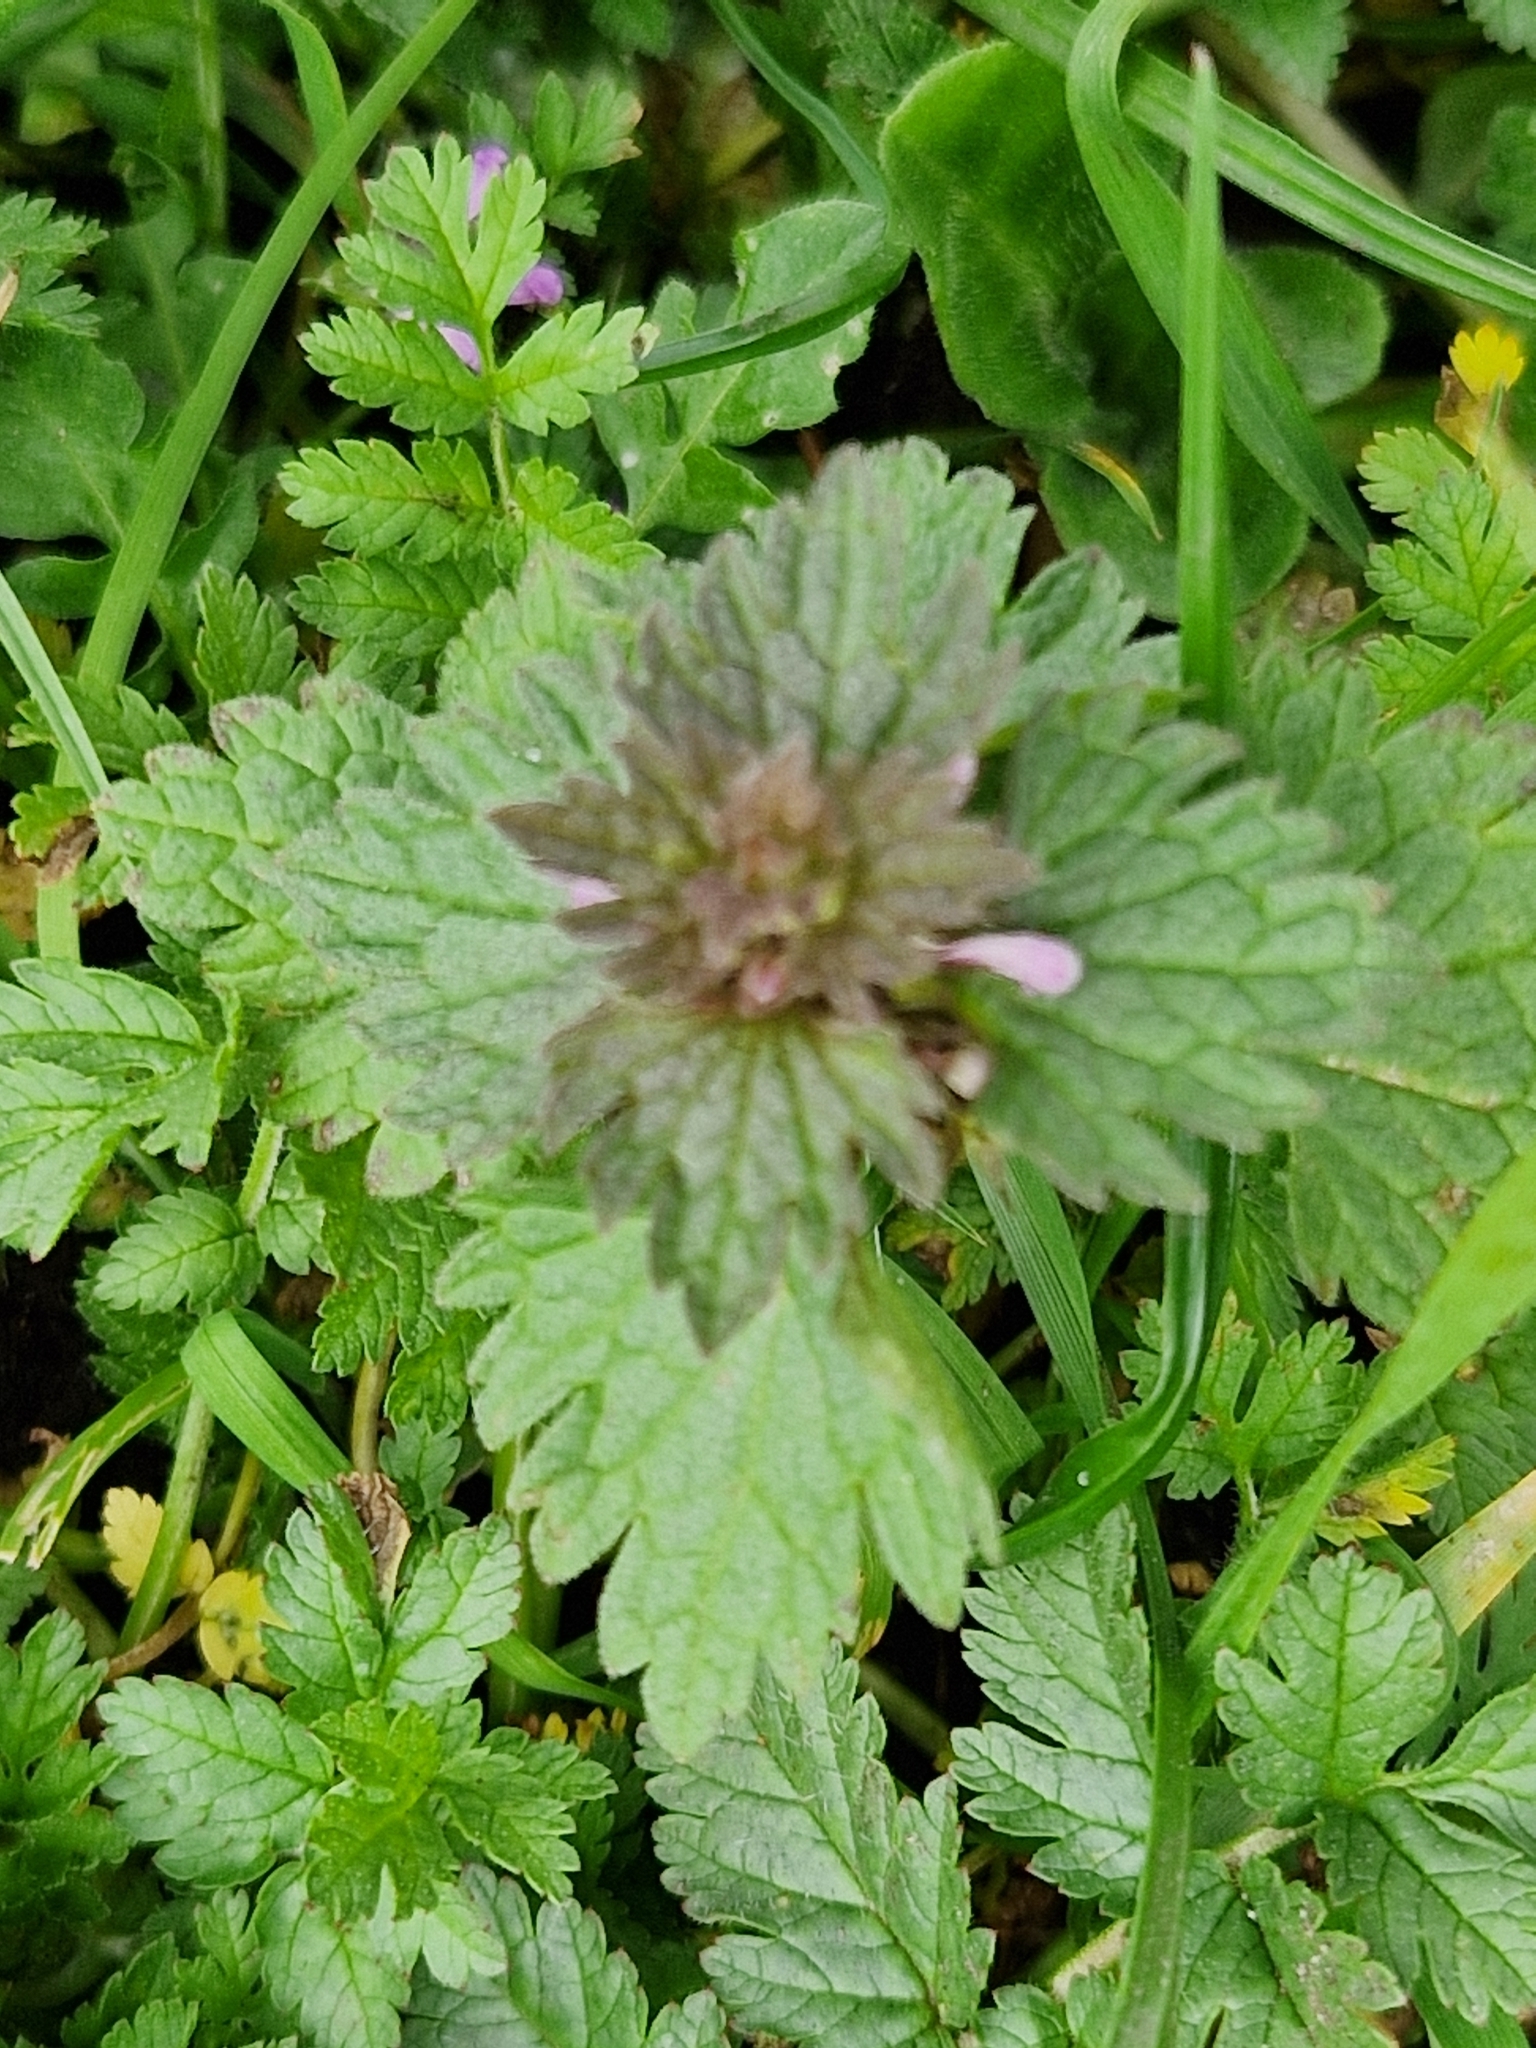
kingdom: Plantae
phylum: Tracheophyta
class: Magnoliopsida
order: Lamiales
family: Lamiaceae
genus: Lamium
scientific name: Lamium hybridum
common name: Cut-leaved dead-nettle
